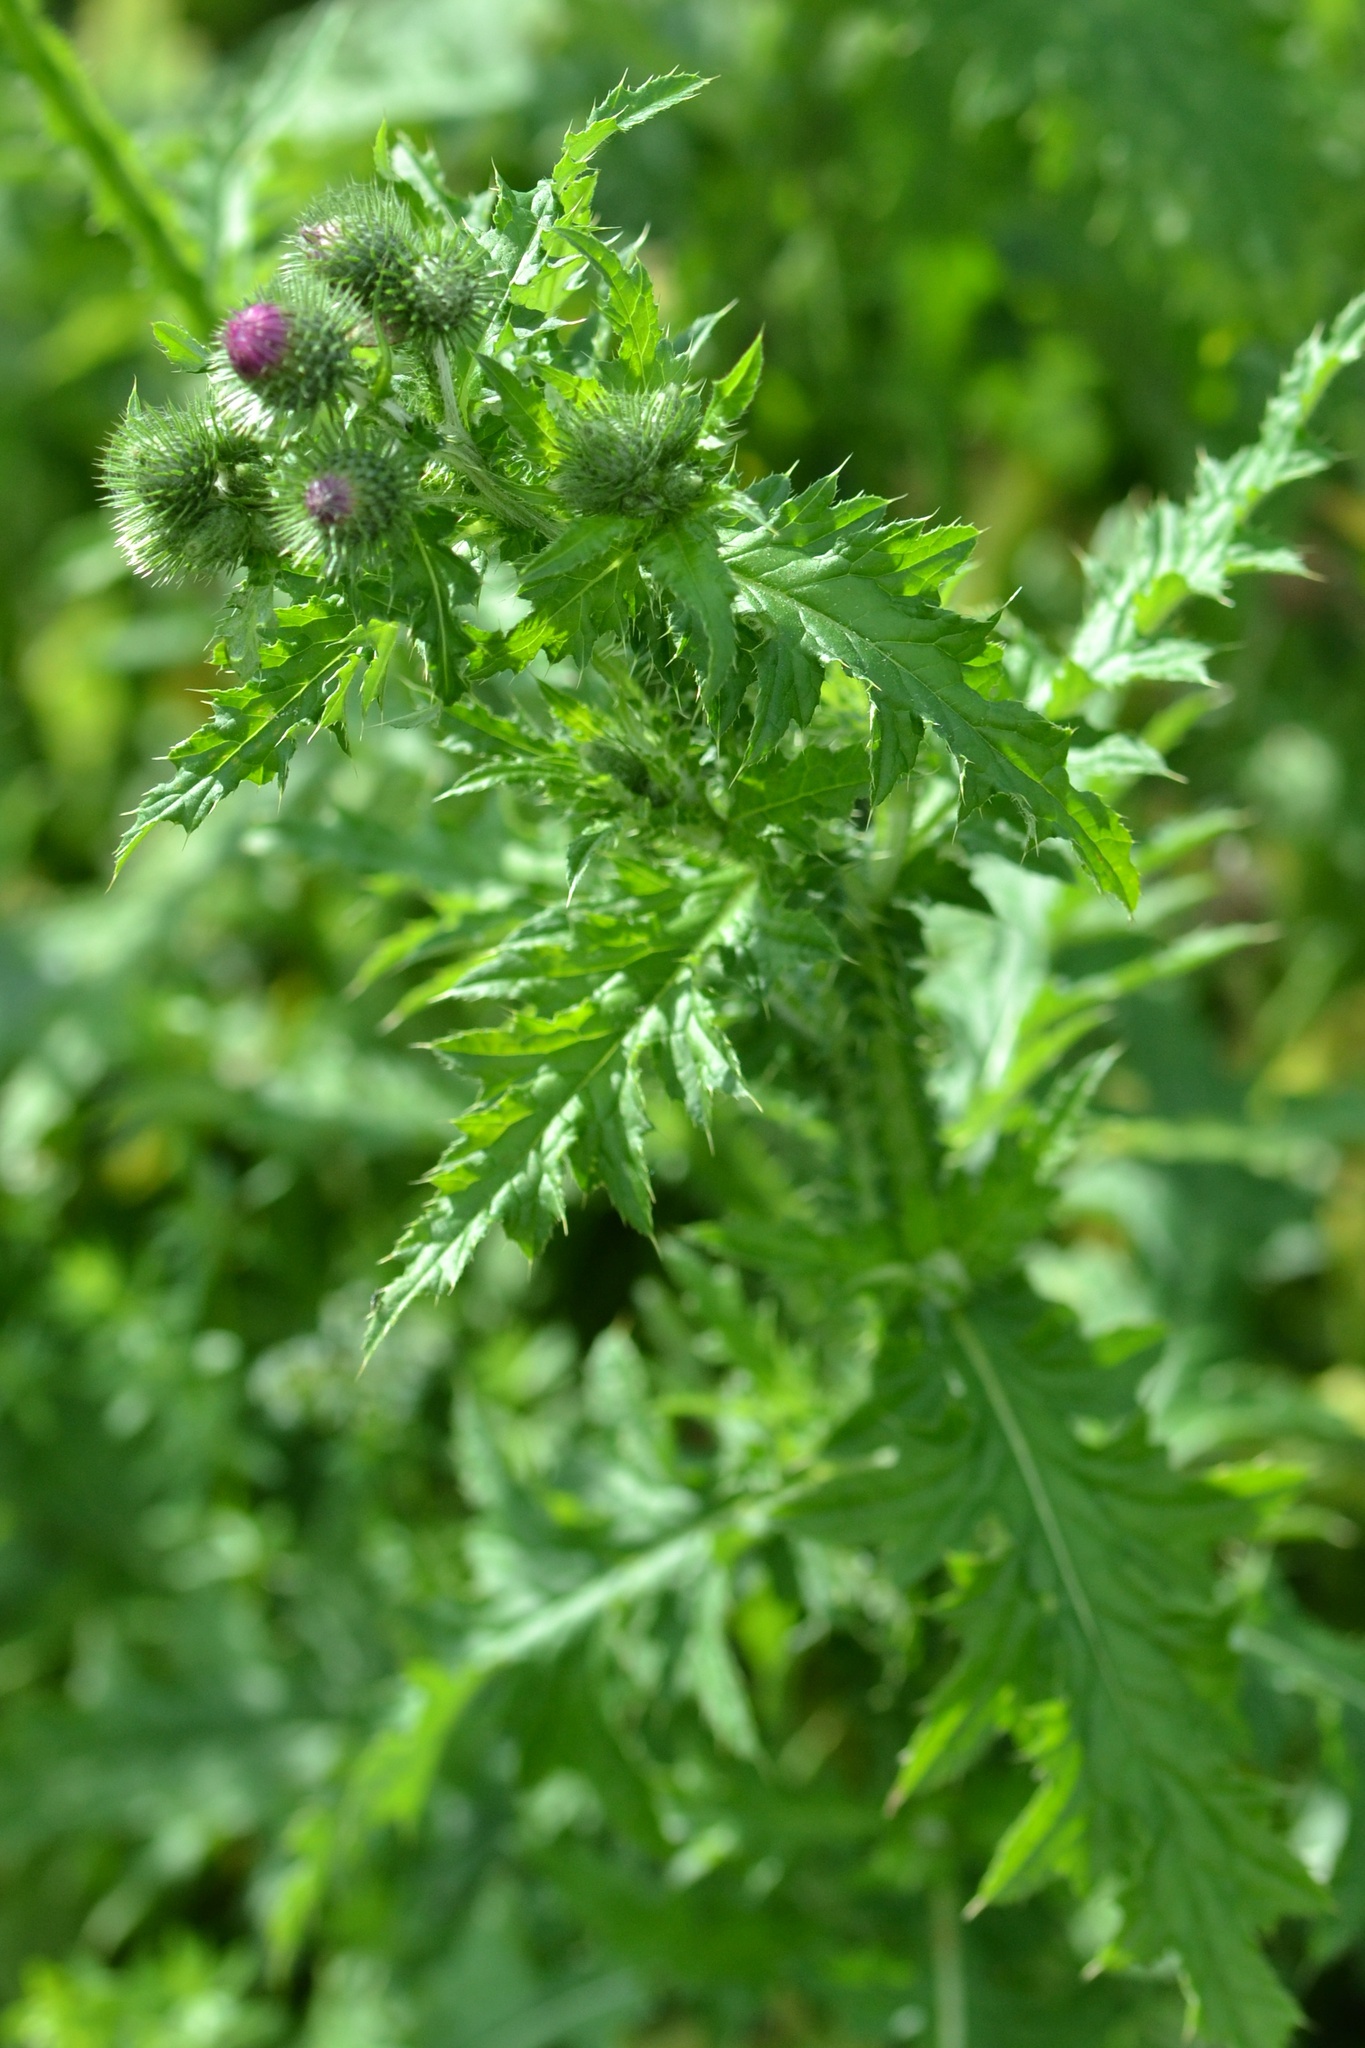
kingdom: Plantae
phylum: Tracheophyta
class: Magnoliopsida
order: Asterales
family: Asteraceae
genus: Carduus
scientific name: Carduus crispus
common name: Welted thistle
